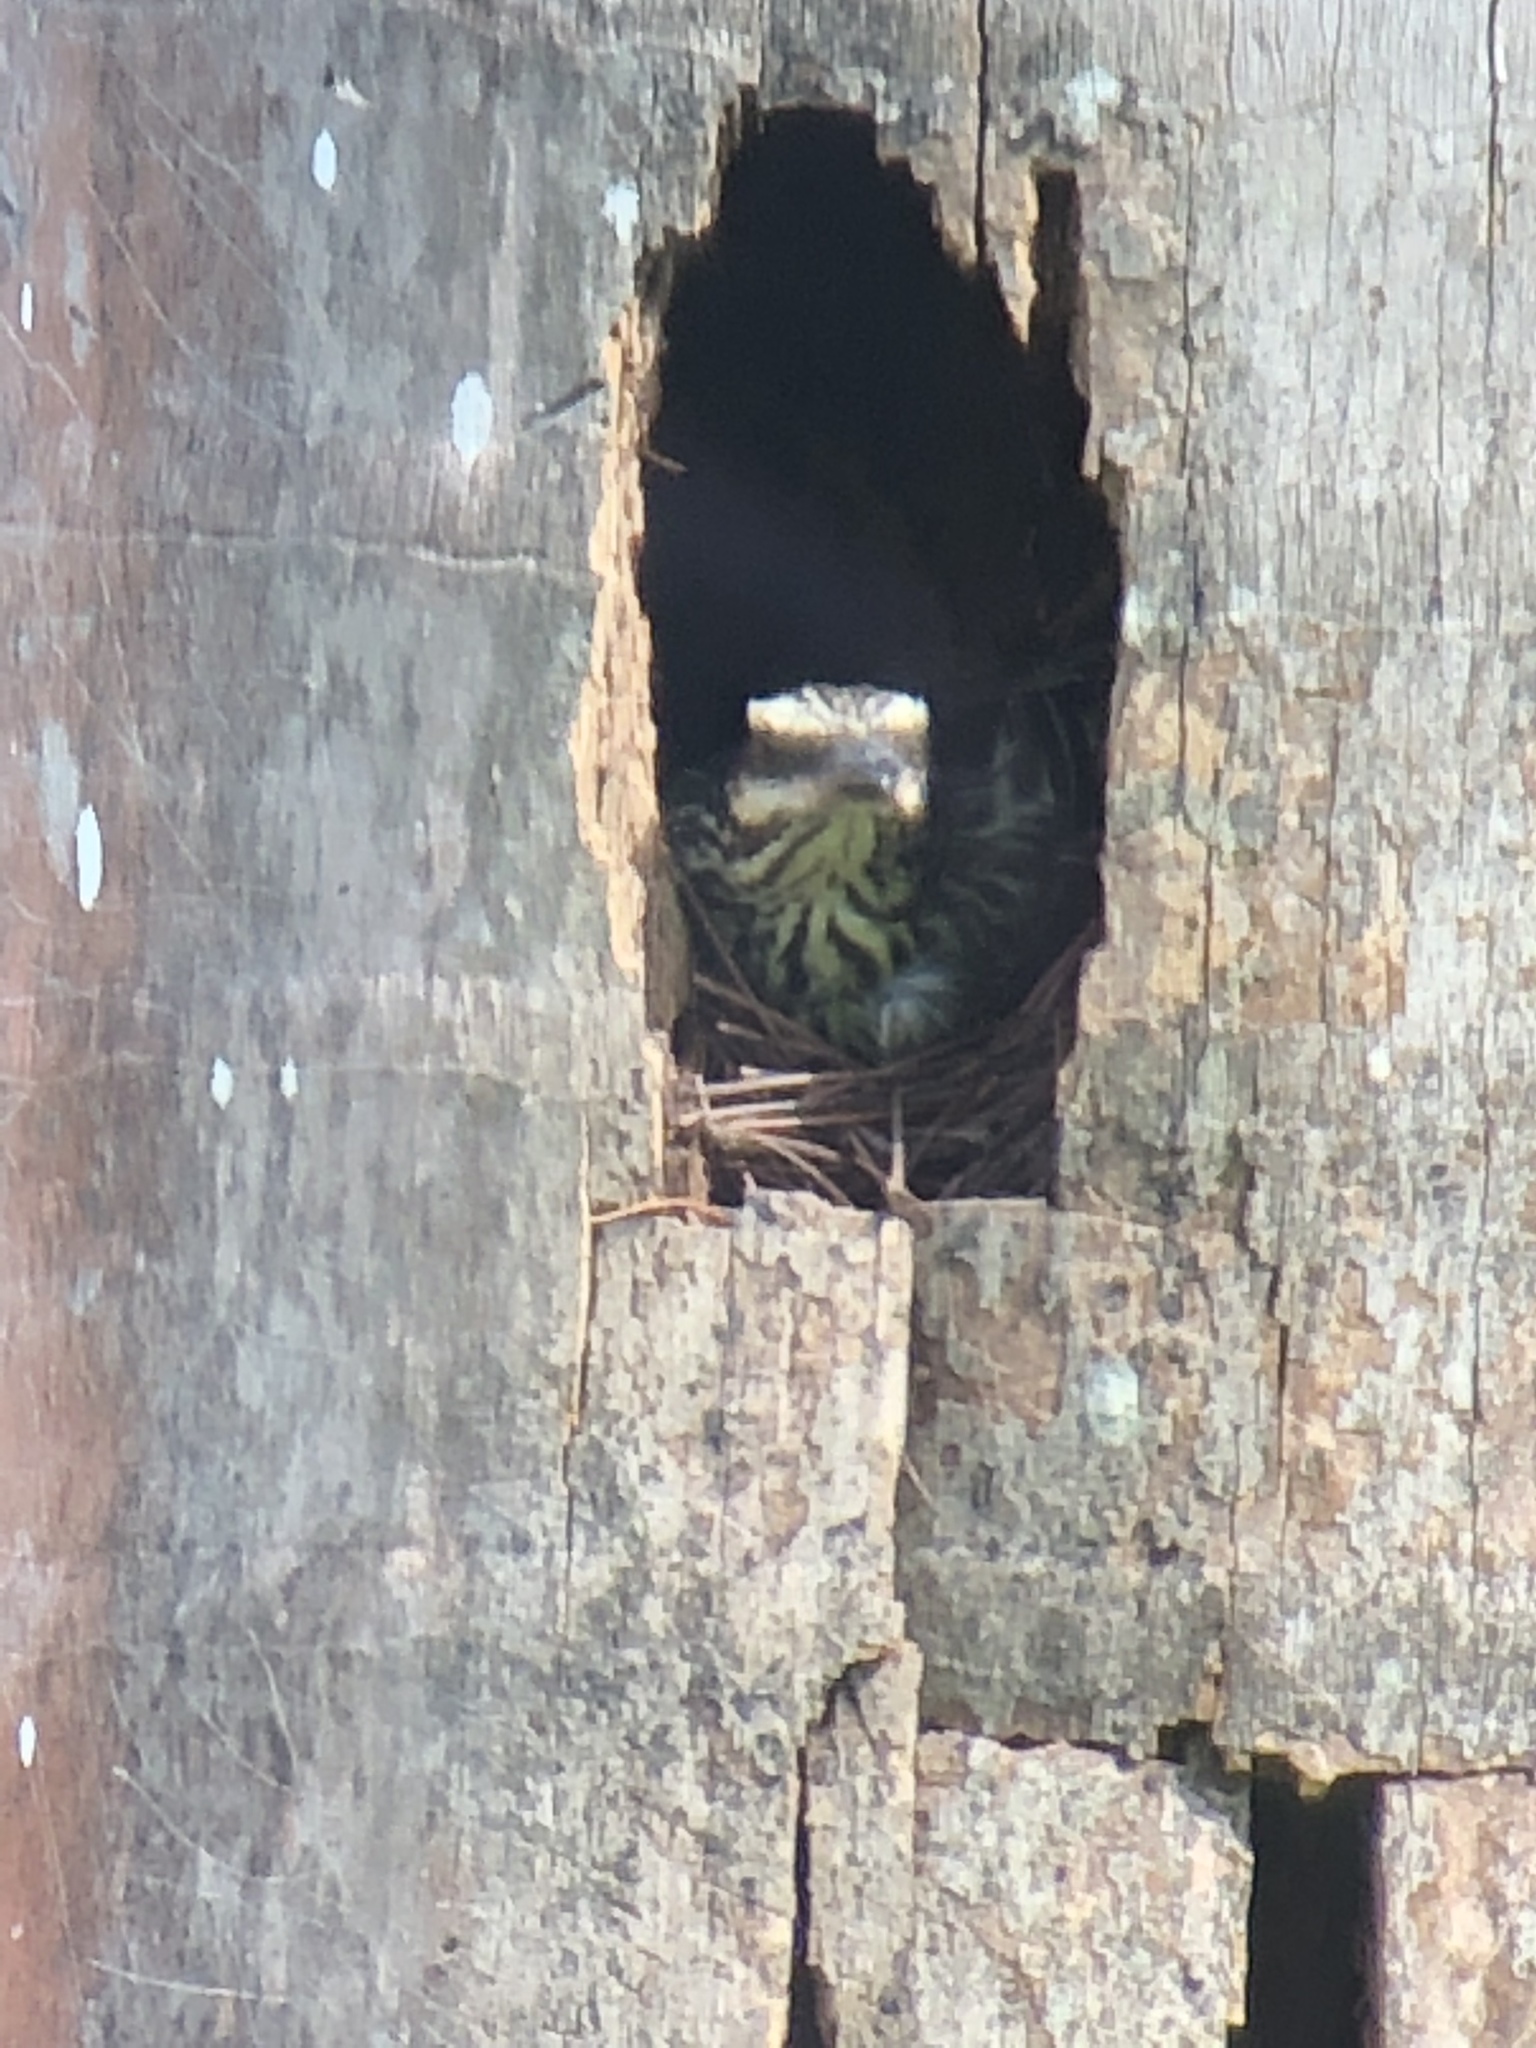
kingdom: Animalia
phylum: Chordata
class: Aves
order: Passeriformes
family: Tyrannidae
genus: Myiodynastes
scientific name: Myiodynastes maculatus
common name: Streaked flycatcher
